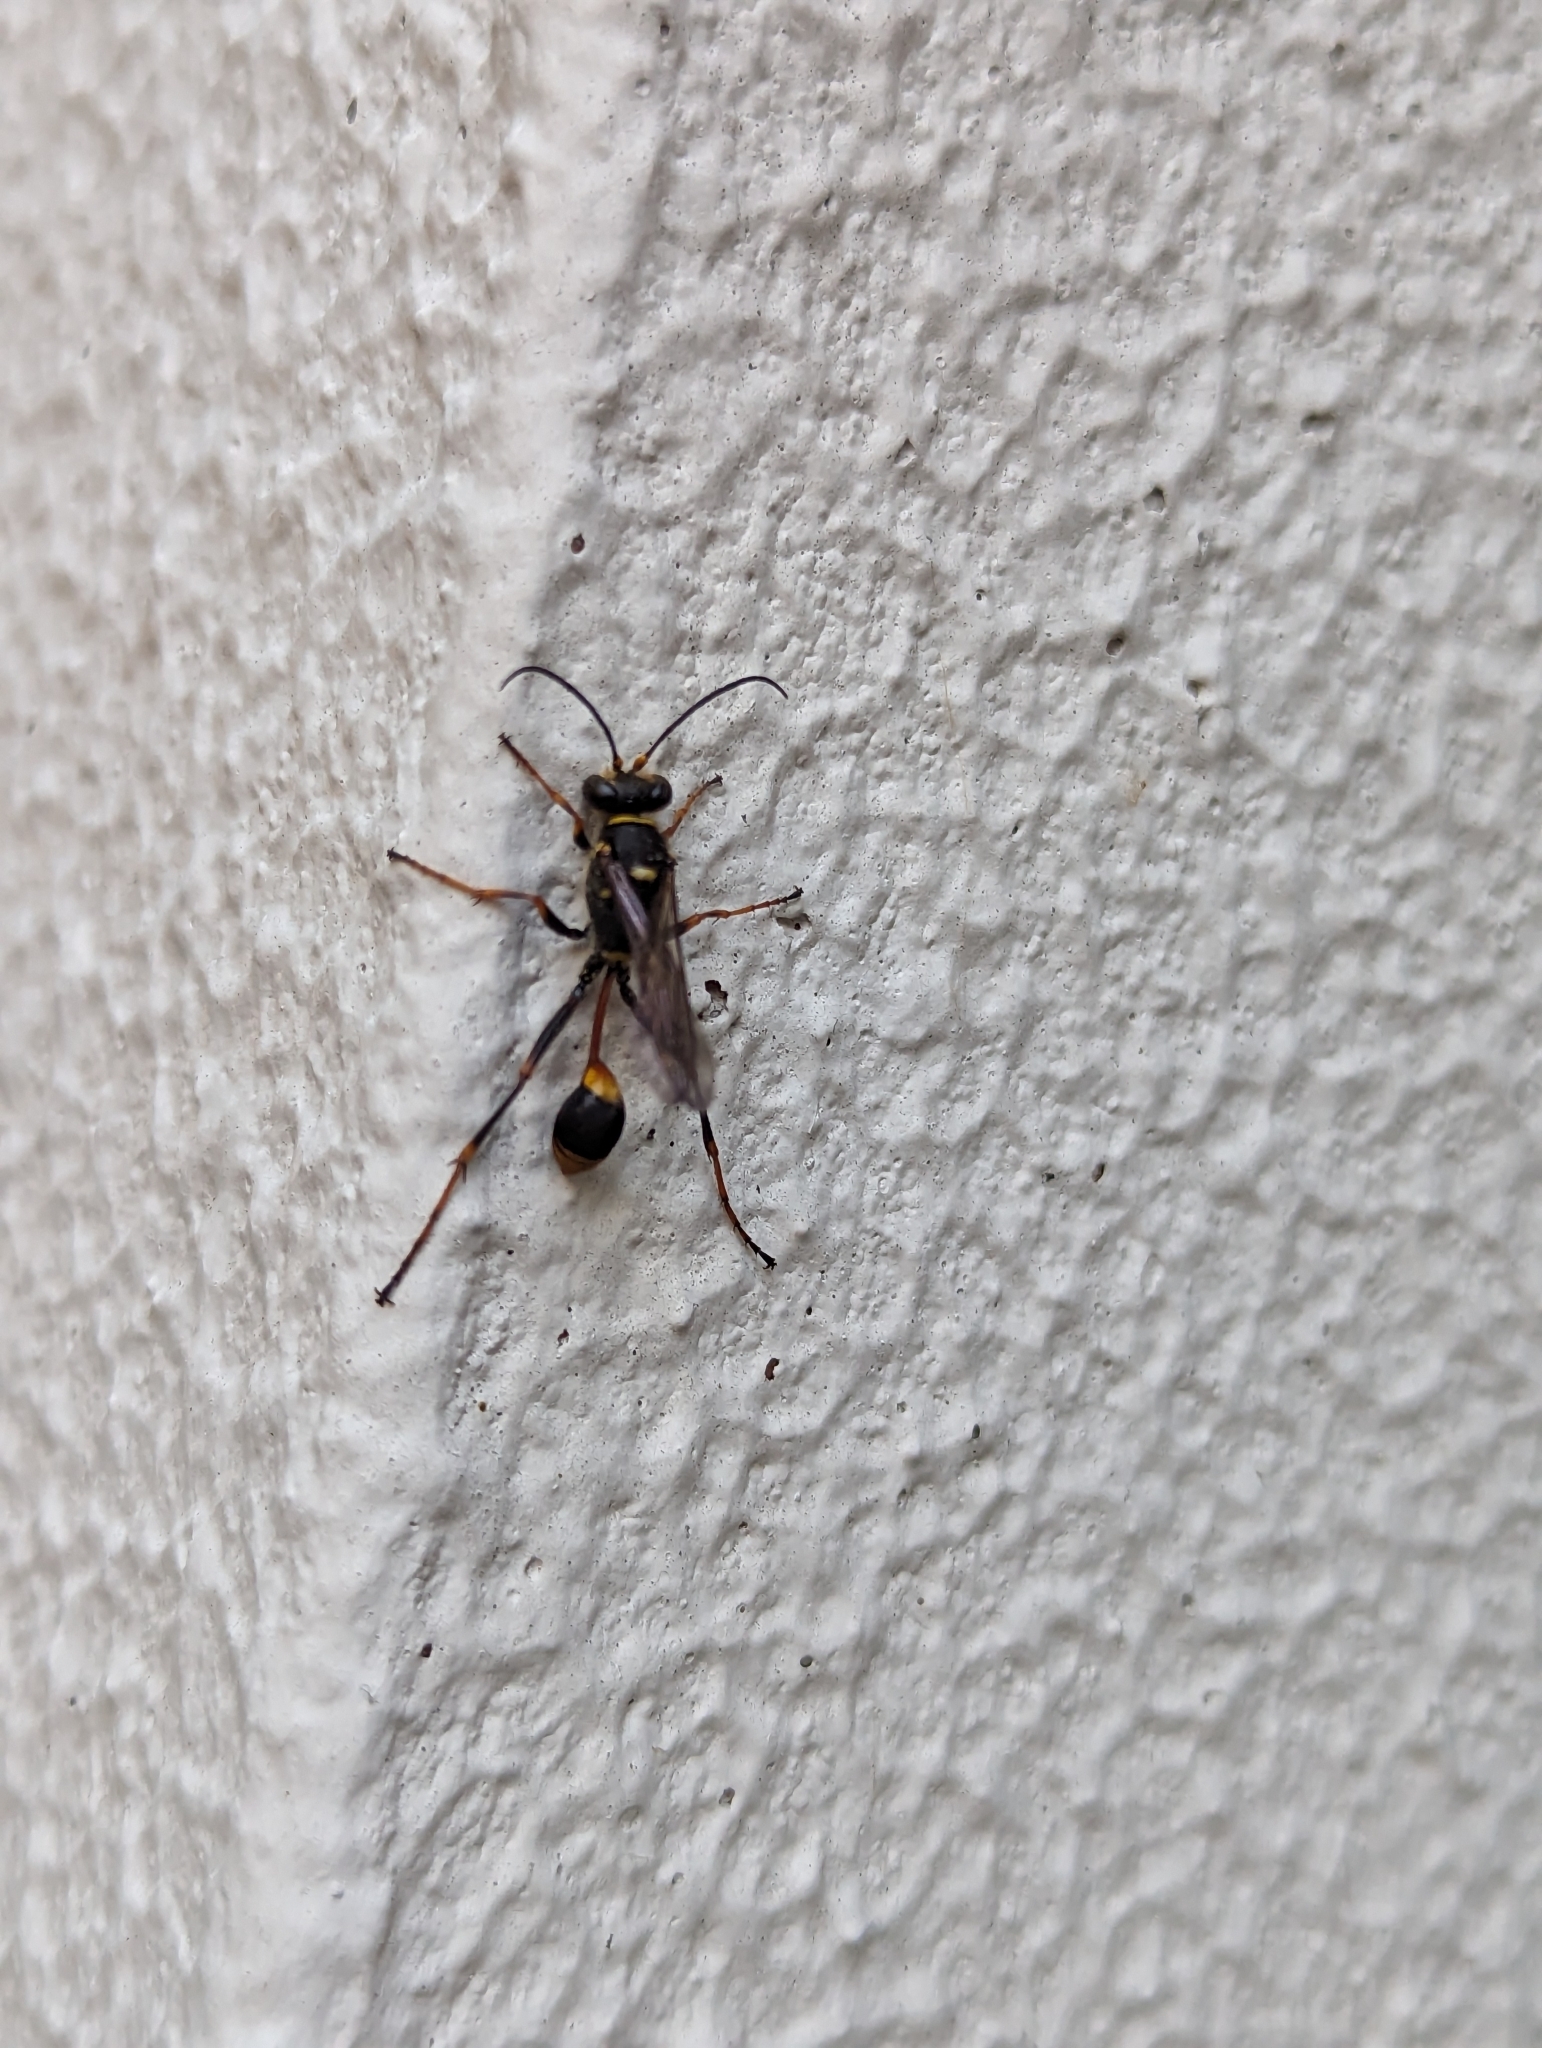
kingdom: Animalia
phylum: Arthropoda
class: Insecta
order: Hymenoptera
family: Sphecidae
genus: Sceliphron
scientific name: Sceliphron formosum
